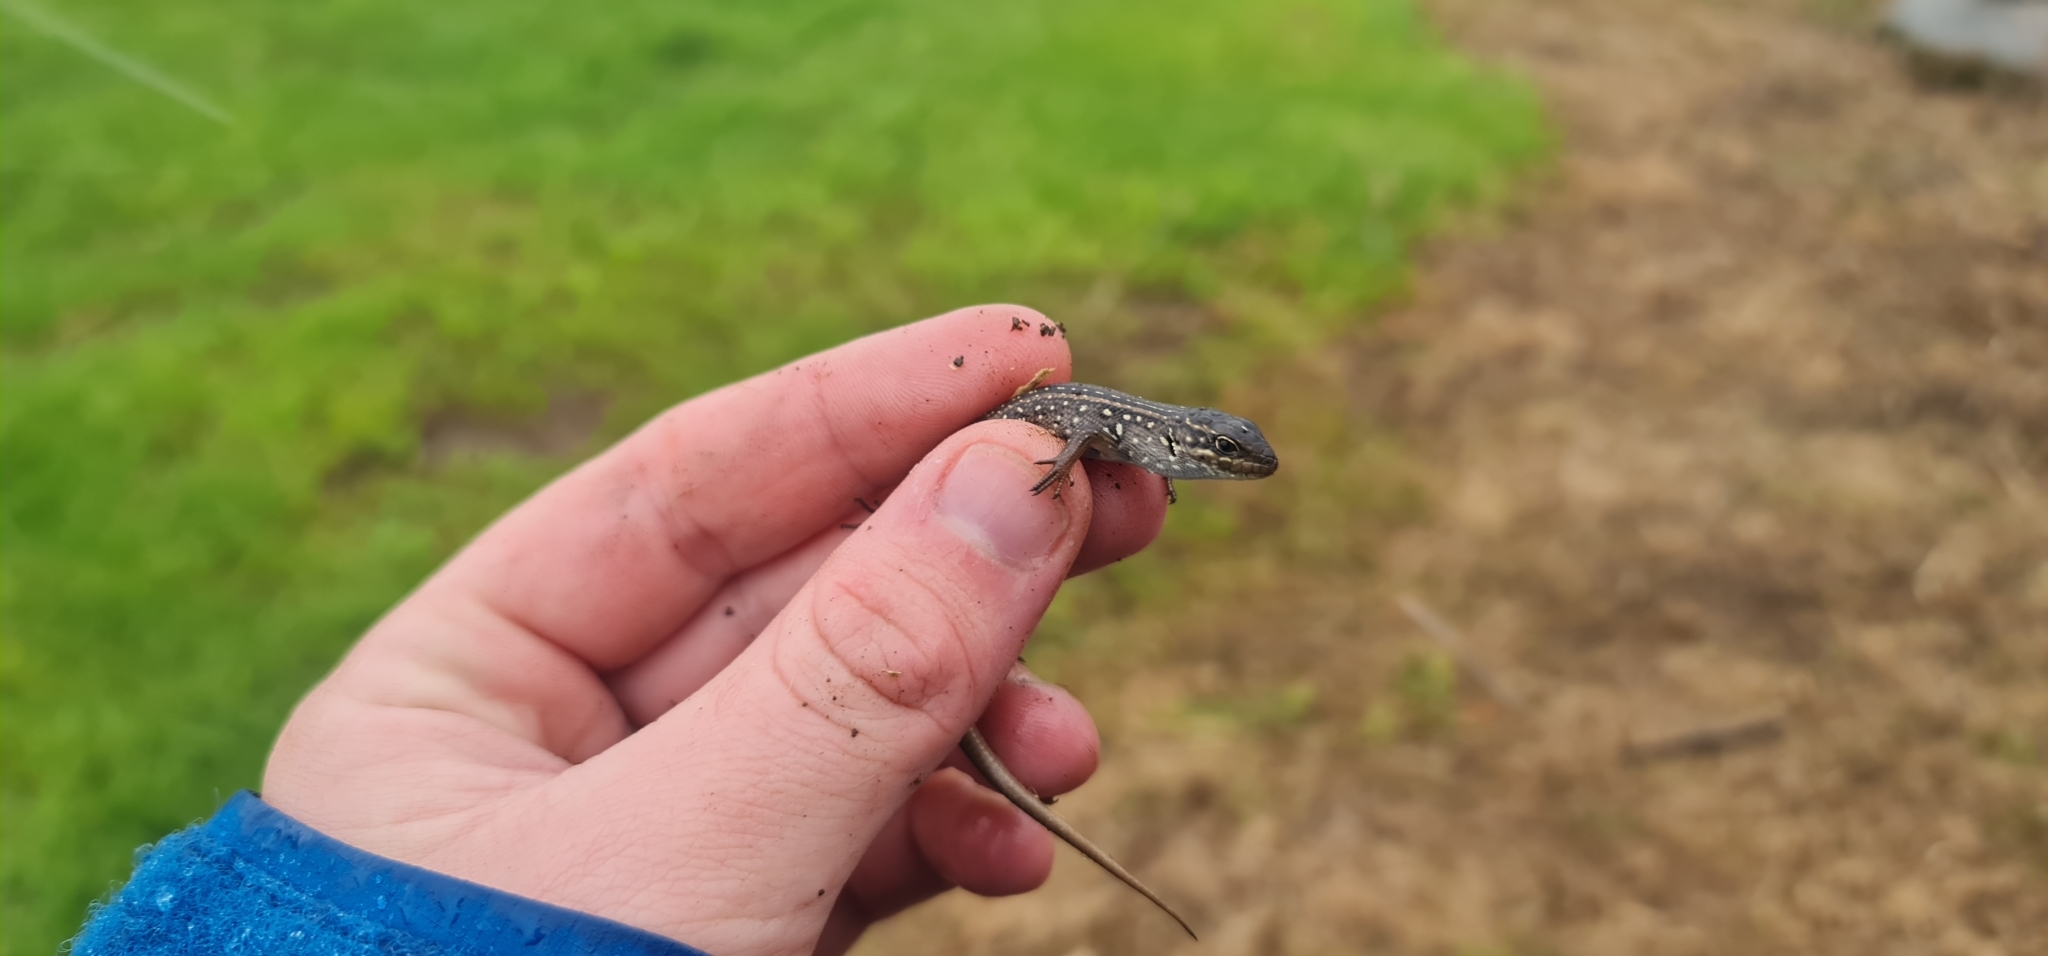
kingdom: Animalia
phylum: Chordata
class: Squamata
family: Scincidae
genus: Liopholis
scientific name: Liopholis whitii
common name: White's rock-skink
